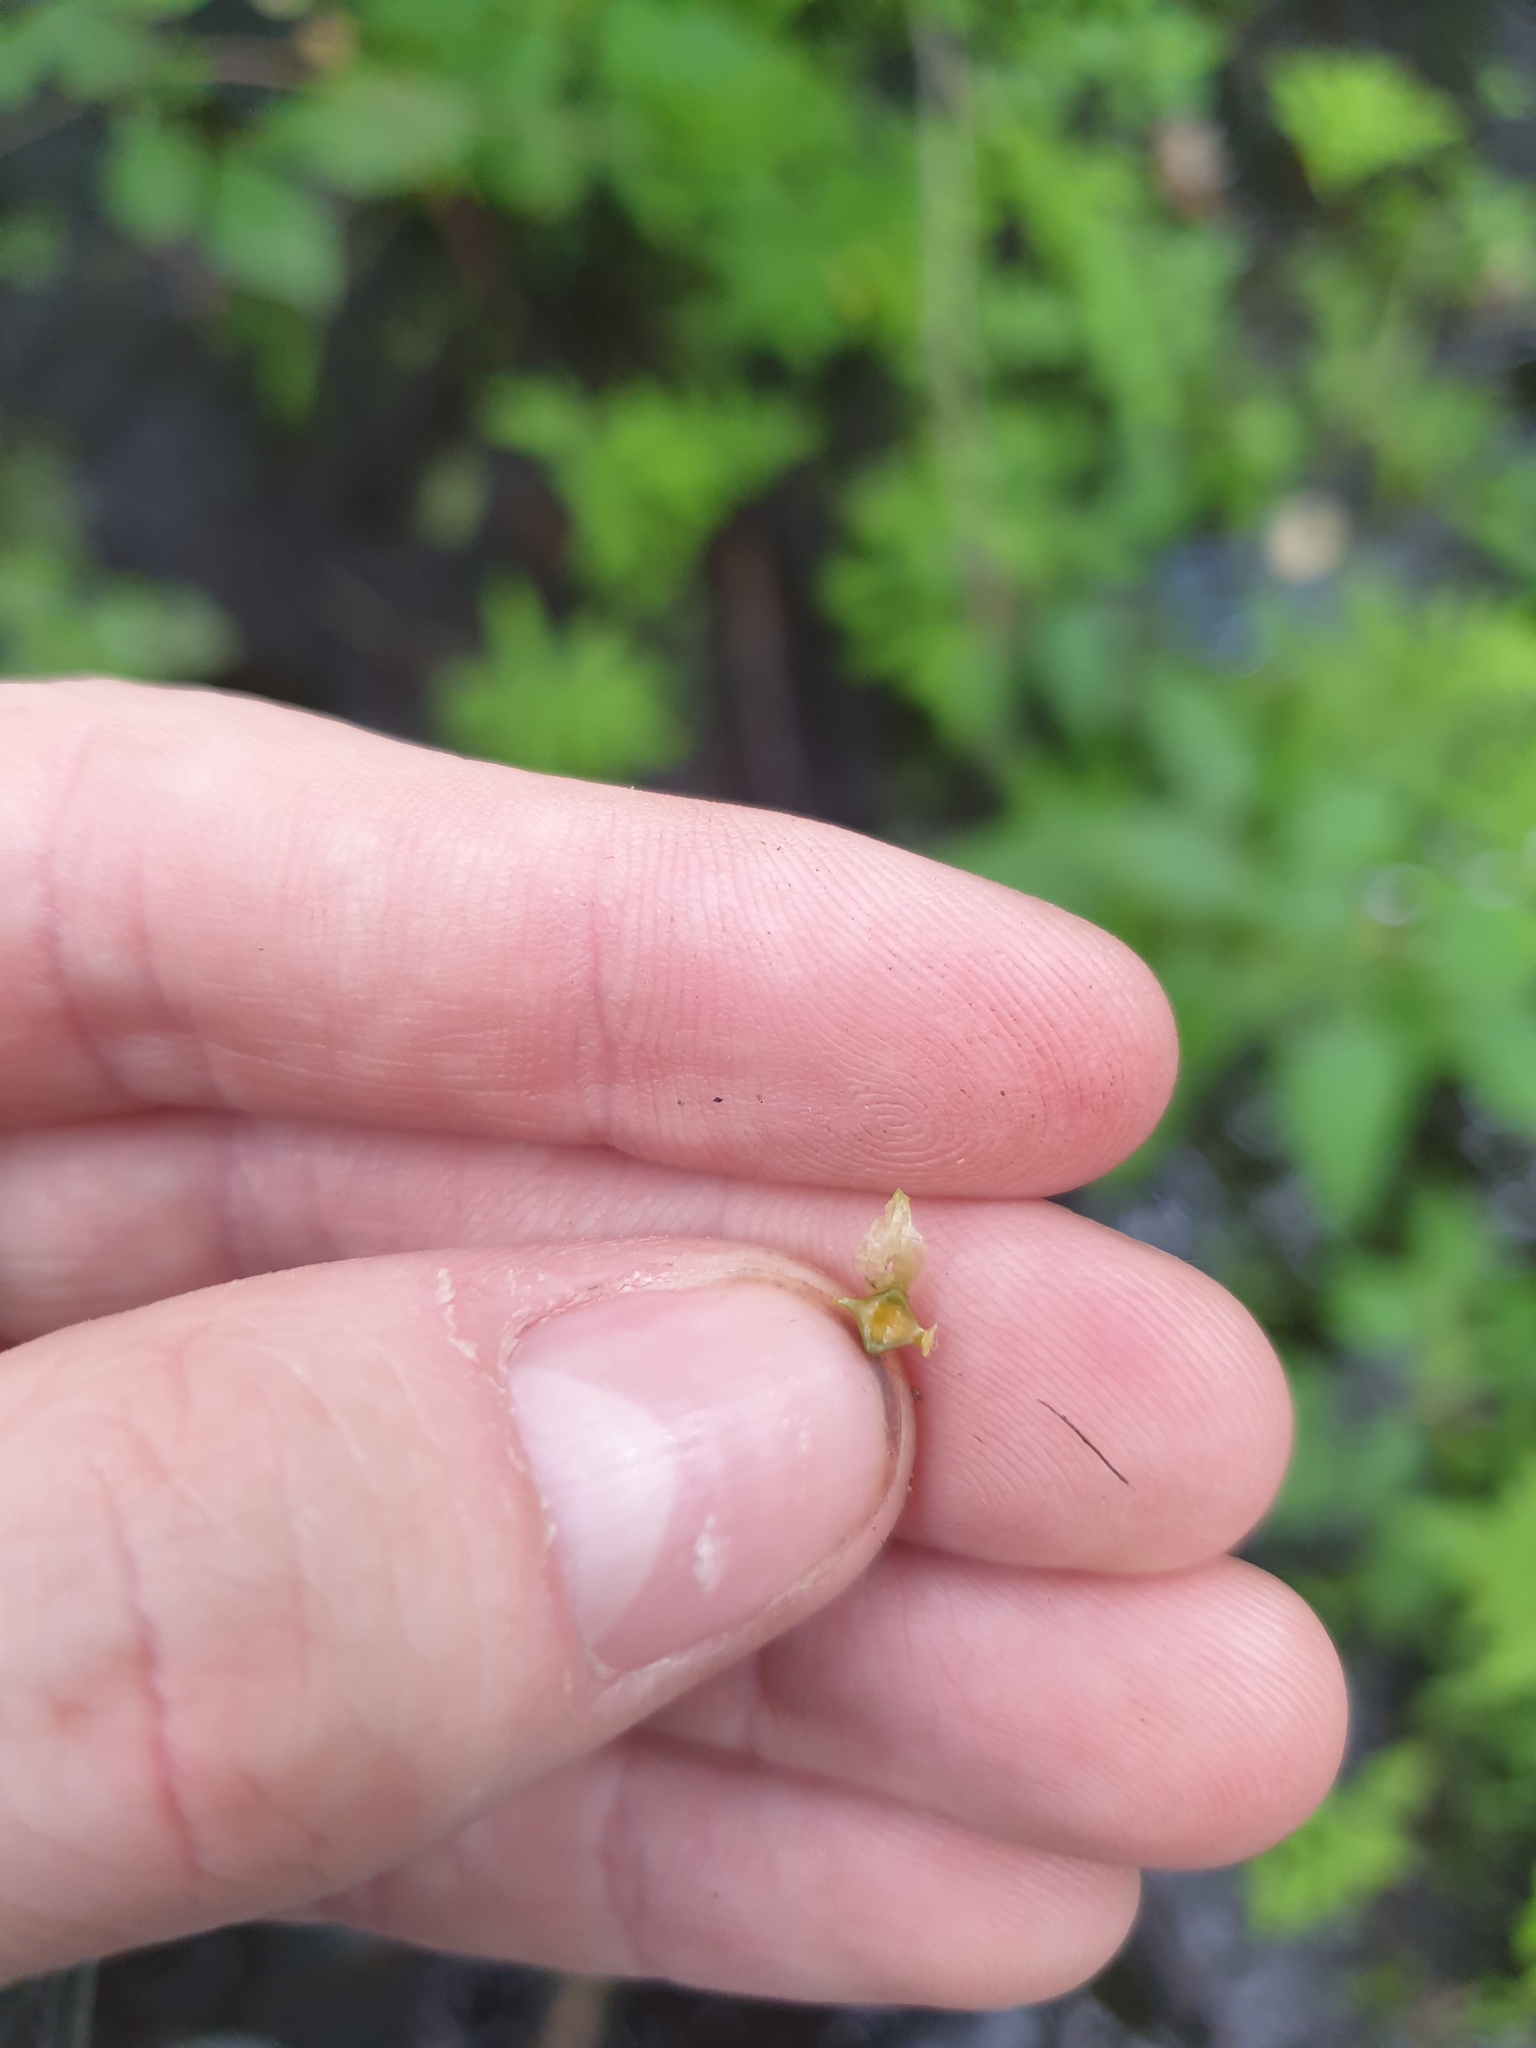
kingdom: Plantae
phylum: Tracheophyta
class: Liliopsida
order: Poales
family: Cyperaceae
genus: Carex
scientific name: Carex lupuliformis
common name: False hop sedge
